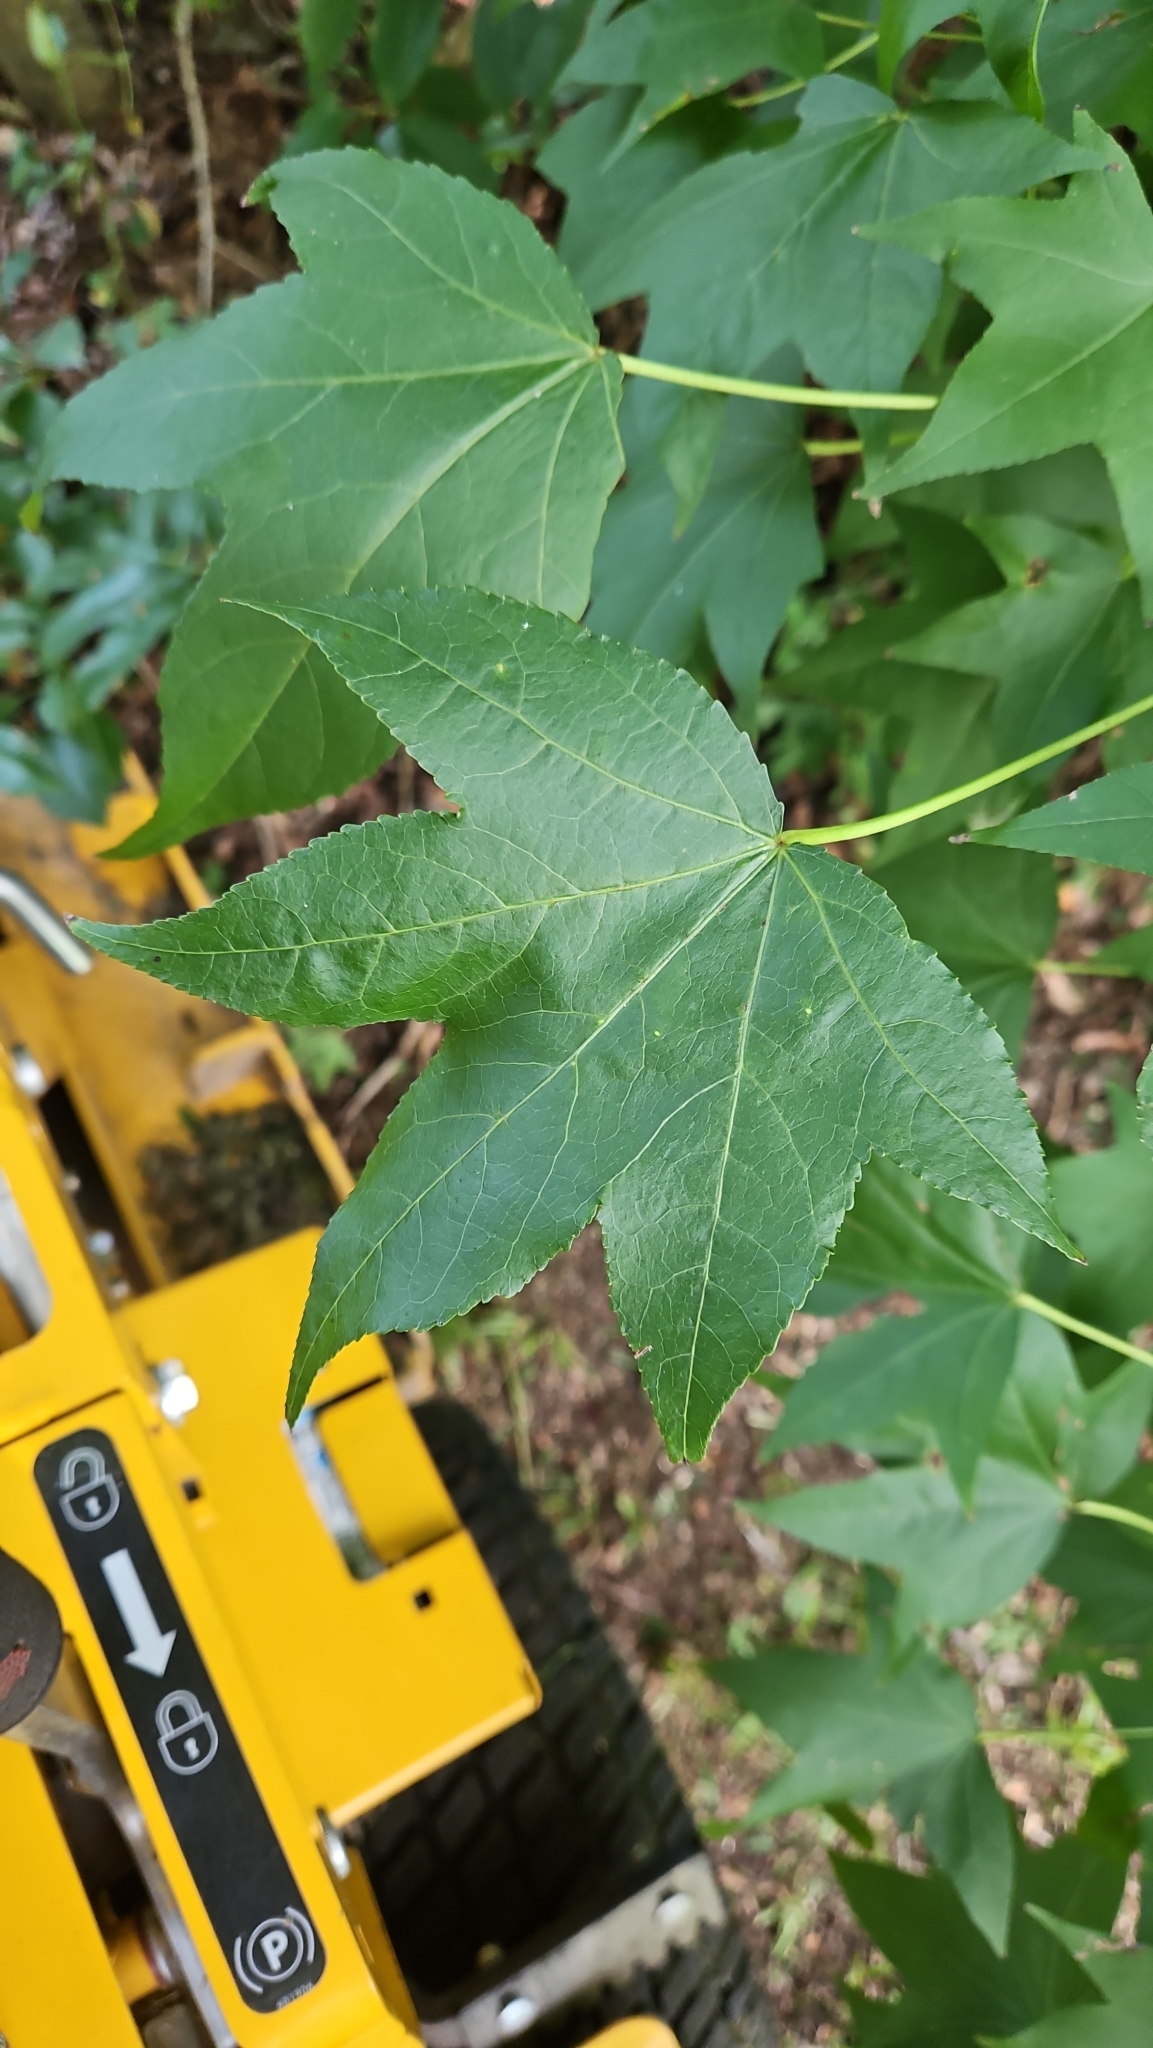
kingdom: Plantae
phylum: Tracheophyta
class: Magnoliopsida
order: Saxifragales
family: Altingiaceae
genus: Liquidambar
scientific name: Liquidambar styraciflua
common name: Sweet gum
